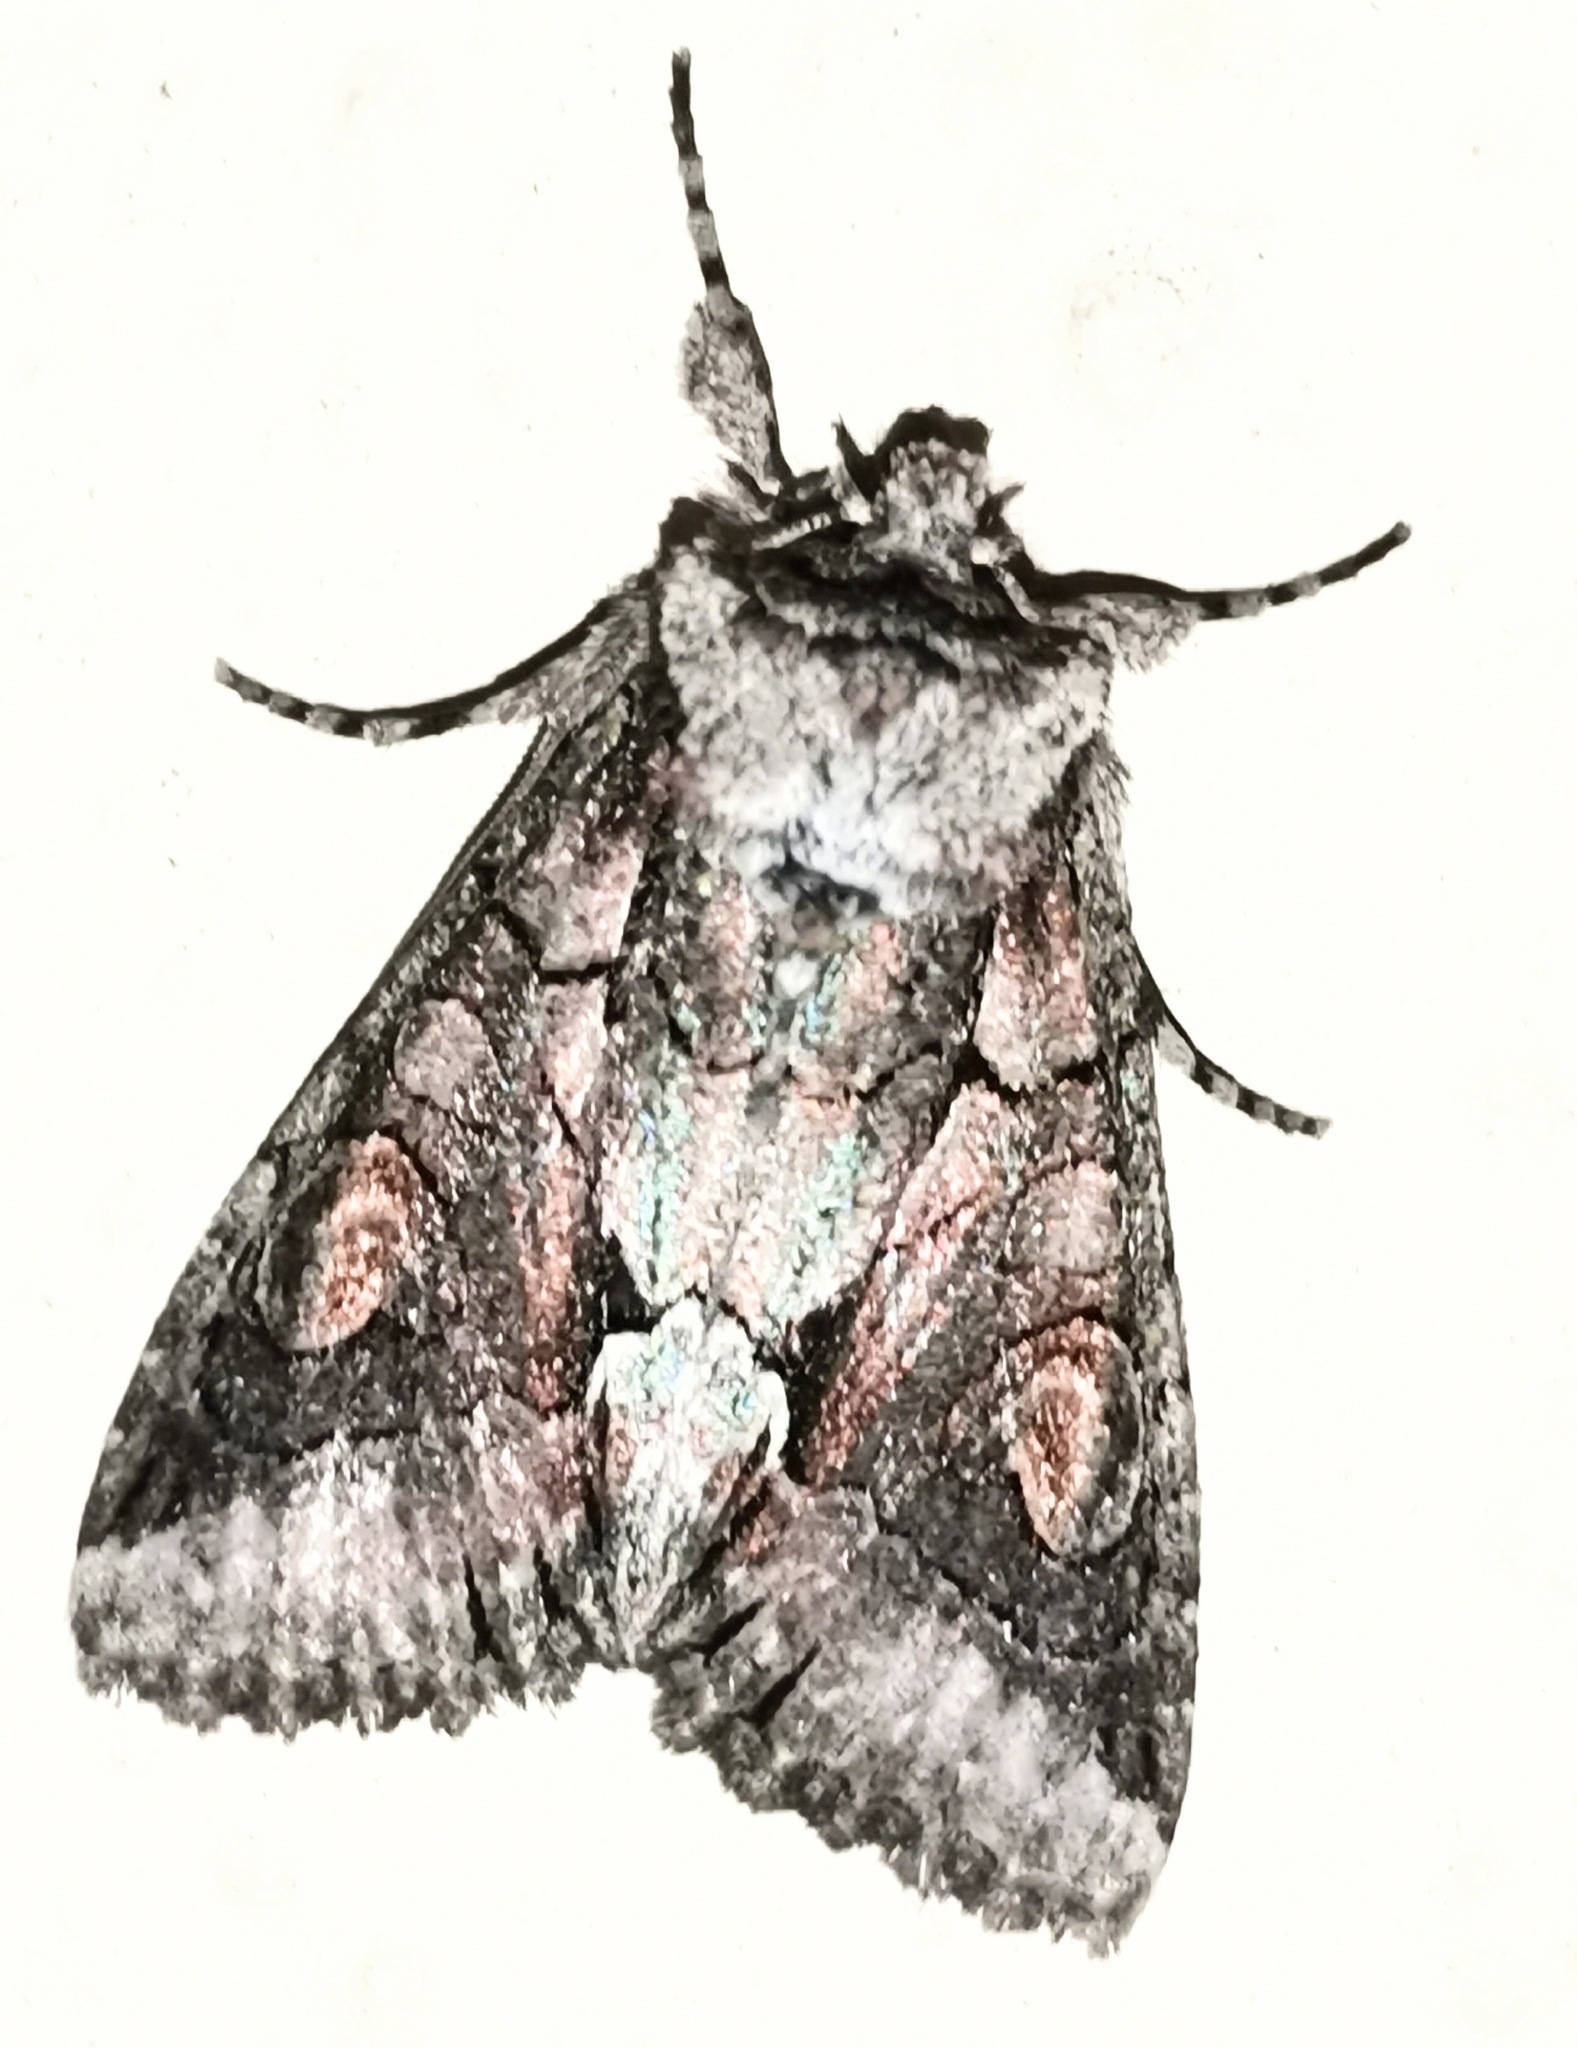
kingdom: Animalia
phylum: Arthropoda
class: Insecta
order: Lepidoptera
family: Noctuidae
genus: Allophyes
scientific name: Allophyes oxyacanthae
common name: Green-brindled crescent
